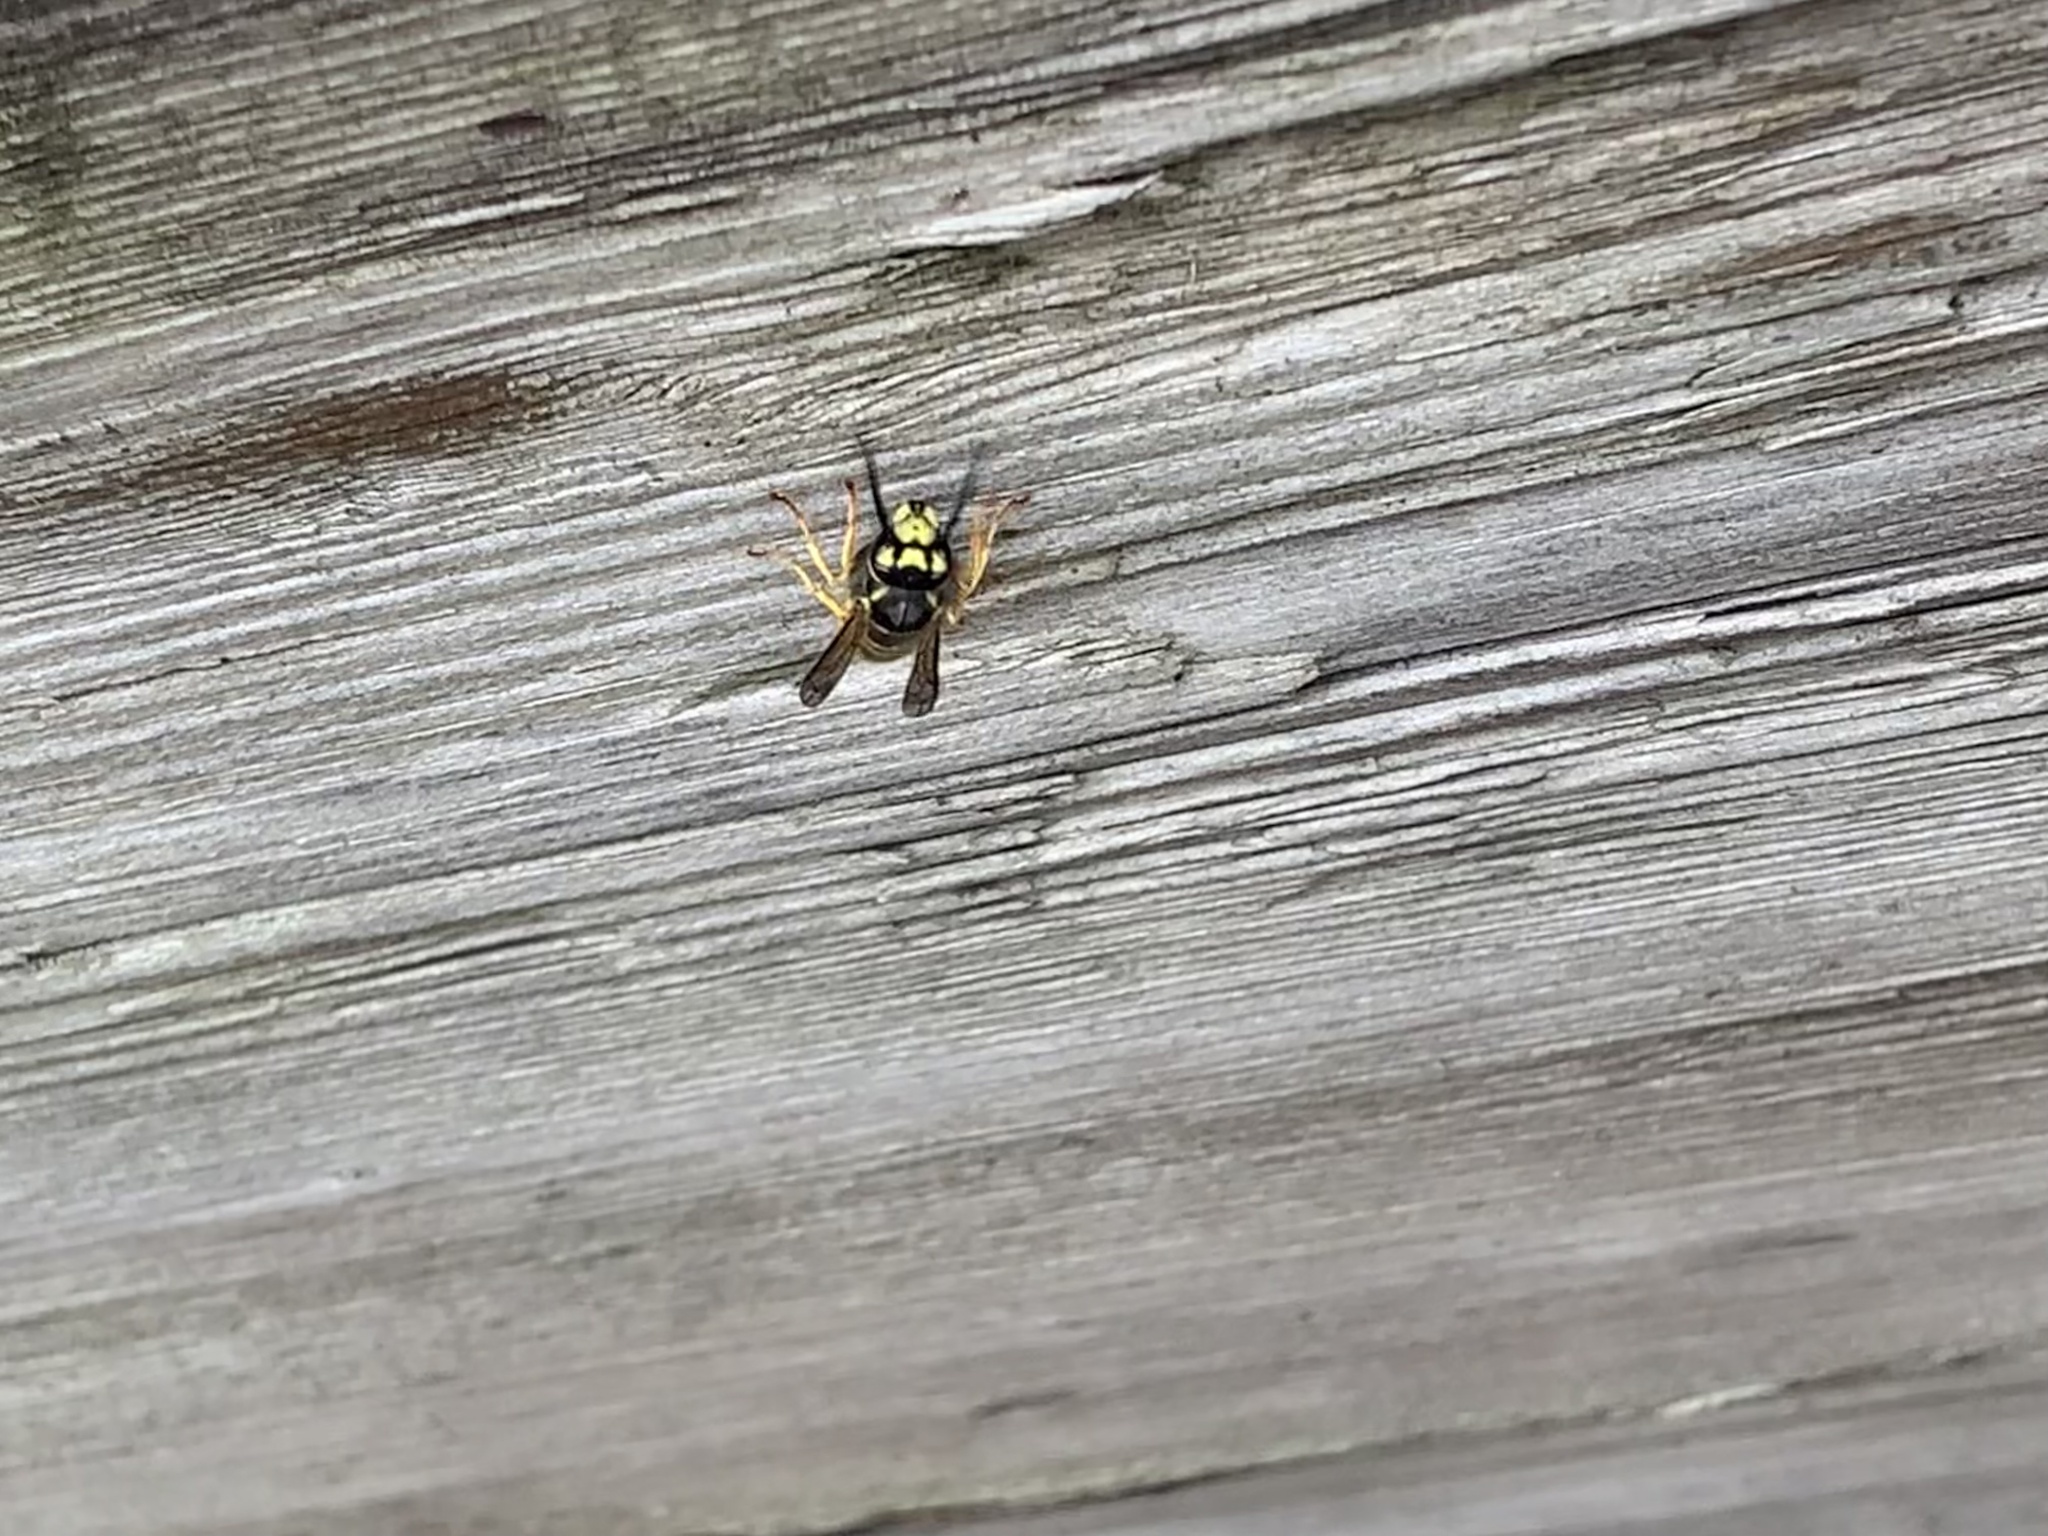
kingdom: Animalia
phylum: Arthropoda
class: Insecta
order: Hymenoptera
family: Vespidae
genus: Vespula
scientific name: Vespula germanica
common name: German wasp
